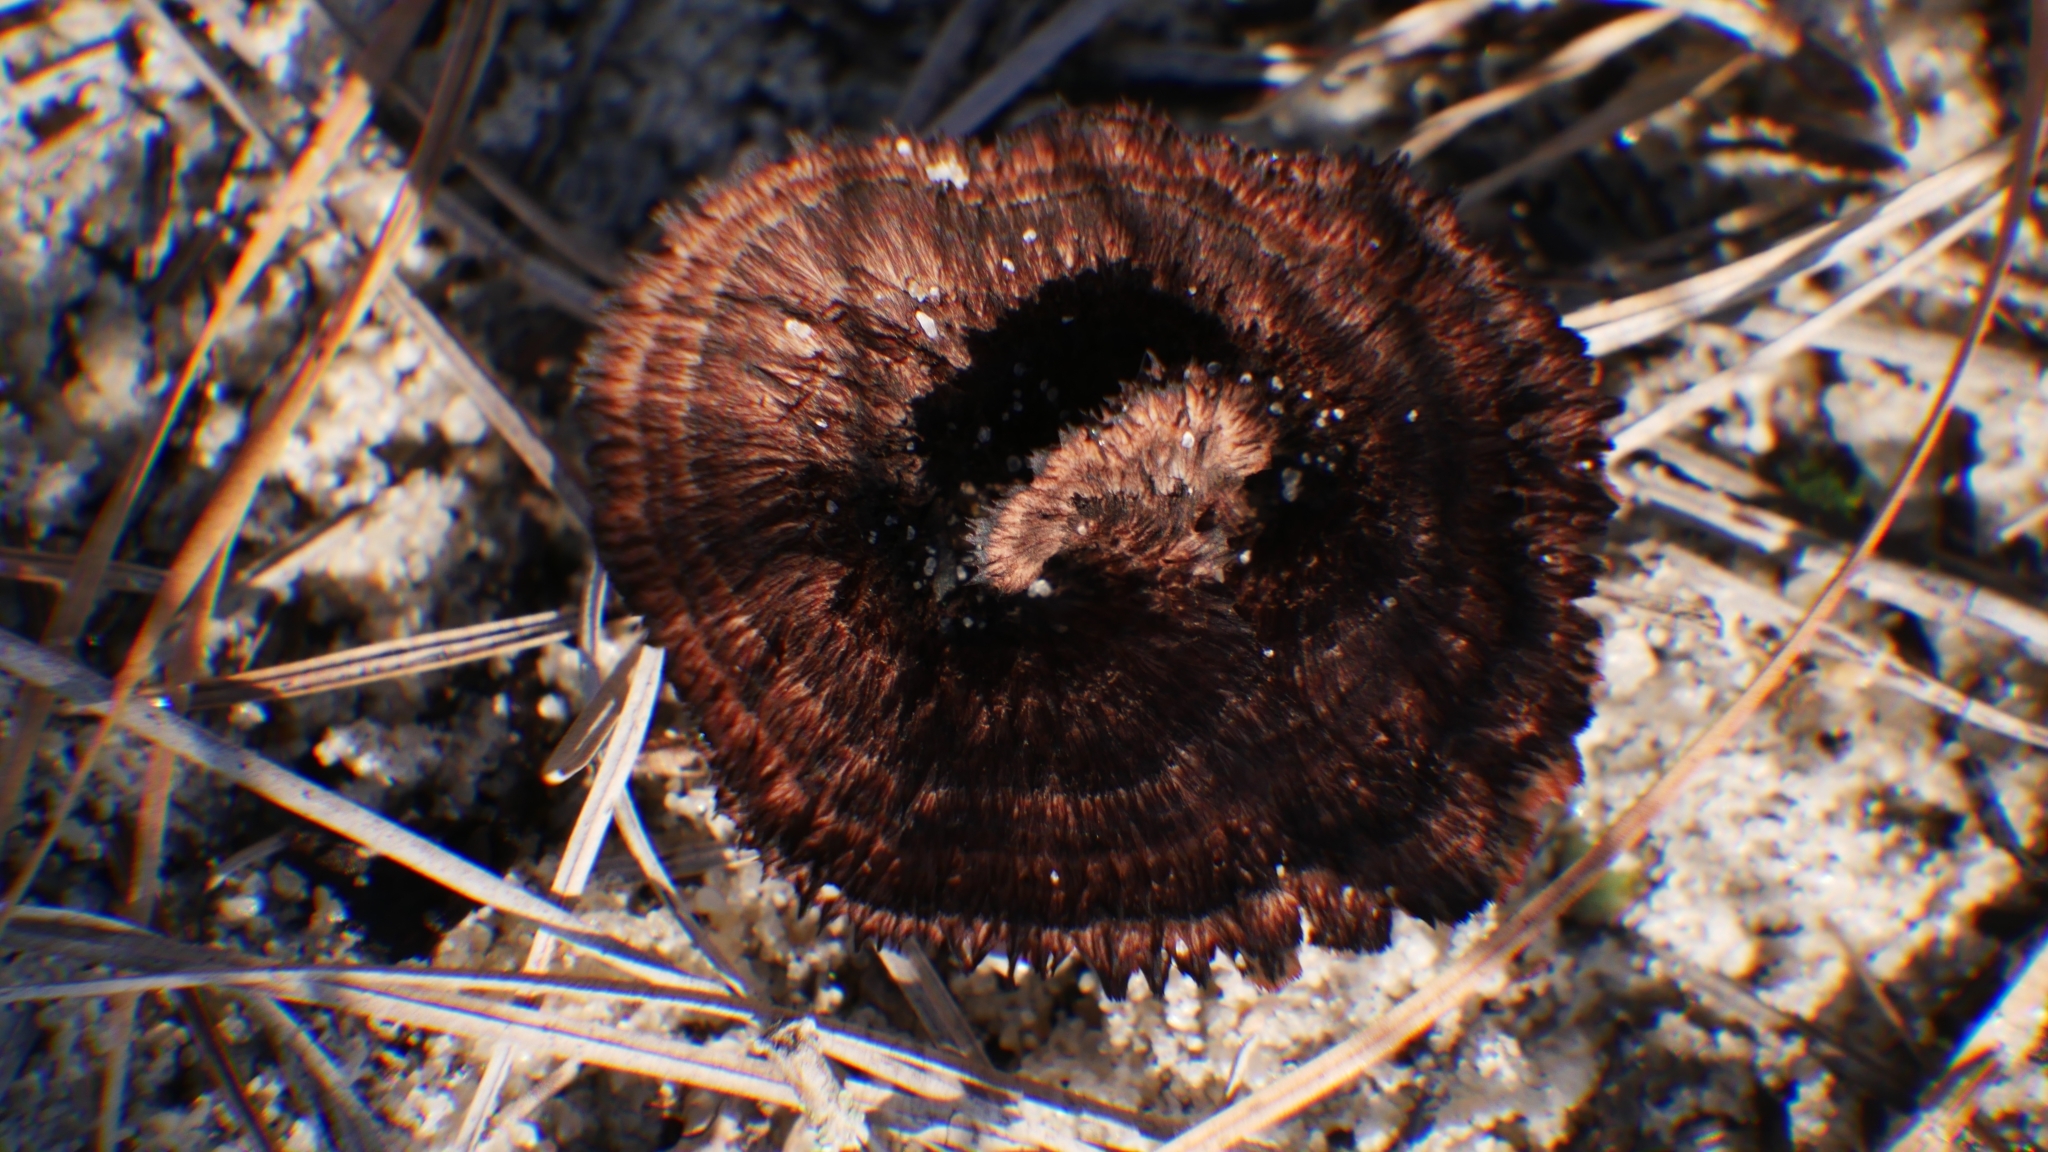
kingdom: Fungi
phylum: Basidiomycota
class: Agaricomycetes
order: Thelephorales
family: Thelephoraceae
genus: Thelephora
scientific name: Thelephora terrestris
